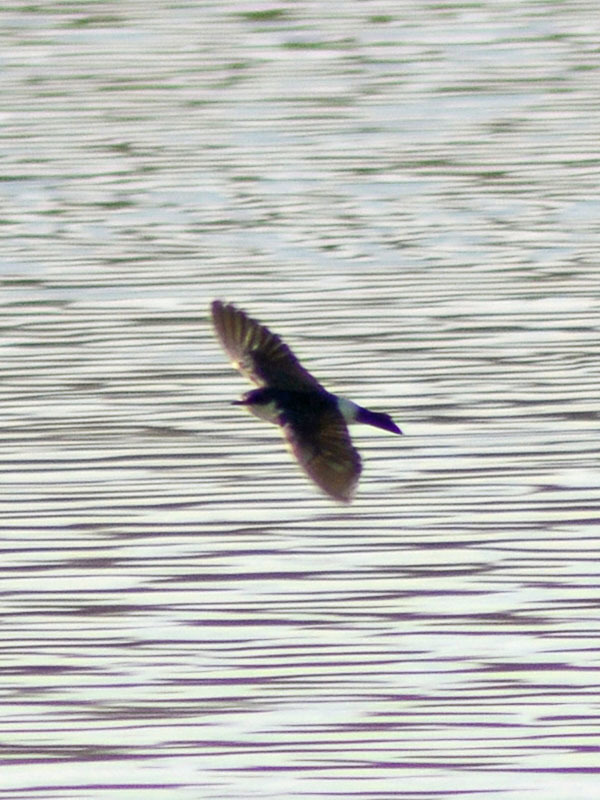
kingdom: Animalia
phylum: Chordata
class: Aves
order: Passeriformes
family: Hirundinidae
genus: Tachycineta
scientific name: Tachycineta albilinea
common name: Mangrove swallow
